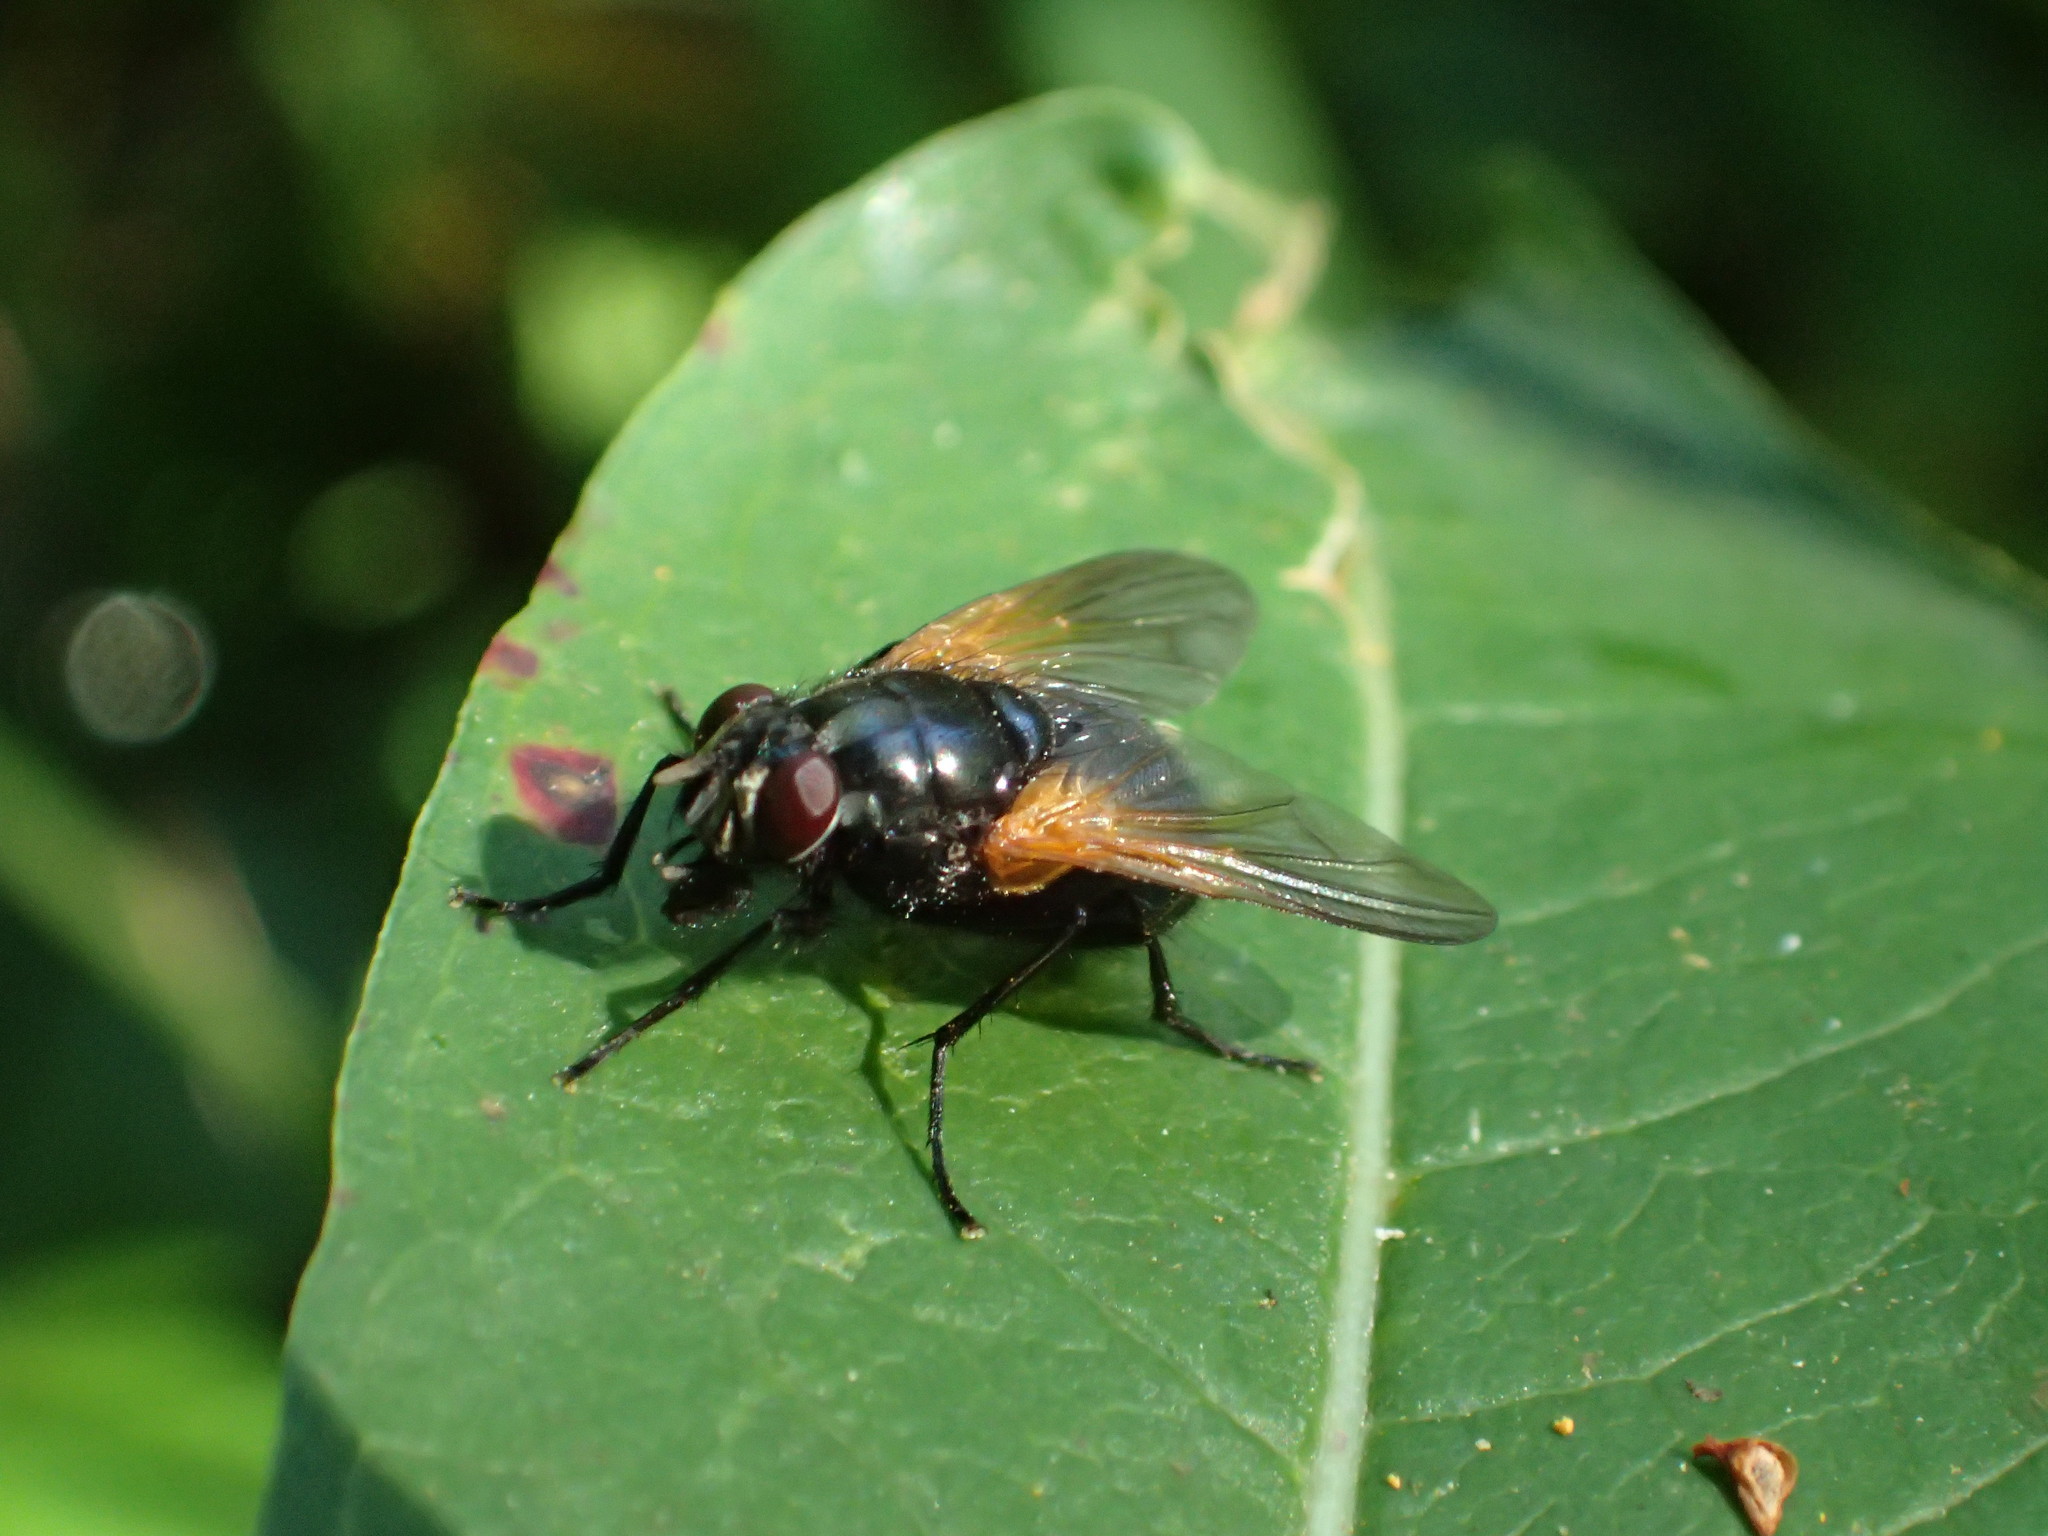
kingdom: Animalia
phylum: Arthropoda
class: Insecta
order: Diptera
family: Muscidae
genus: Mesembrina
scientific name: Mesembrina latreillii
